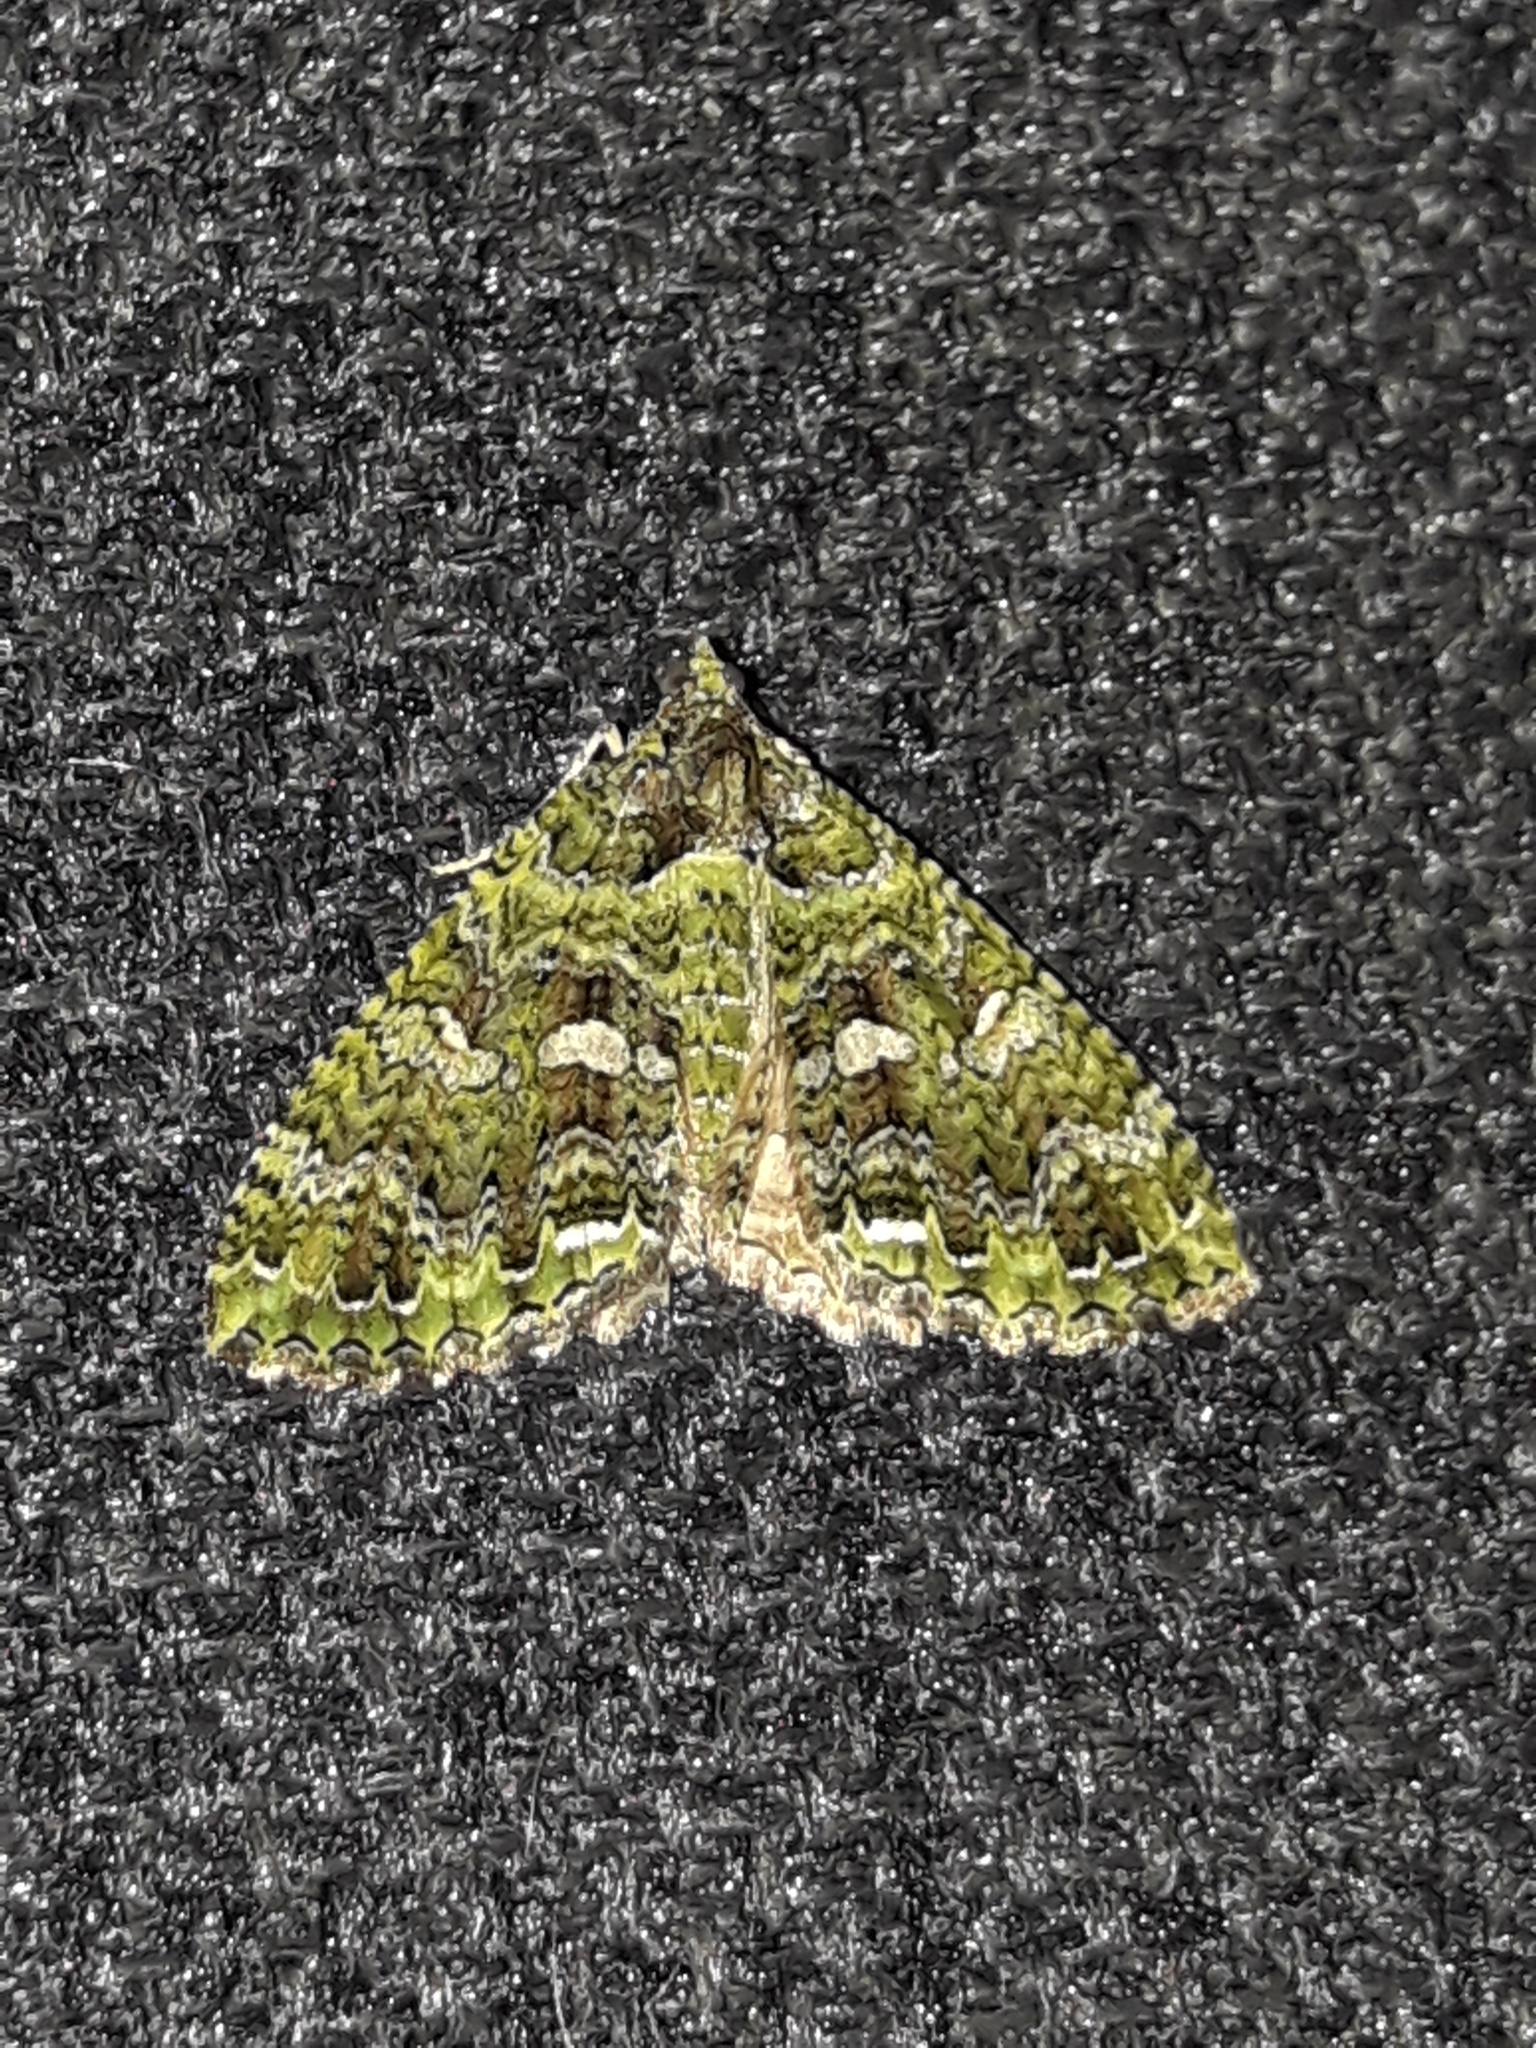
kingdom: Animalia
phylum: Arthropoda
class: Insecta
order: Lepidoptera
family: Geometridae
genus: Austrocidaria
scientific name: Austrocidaria similata
